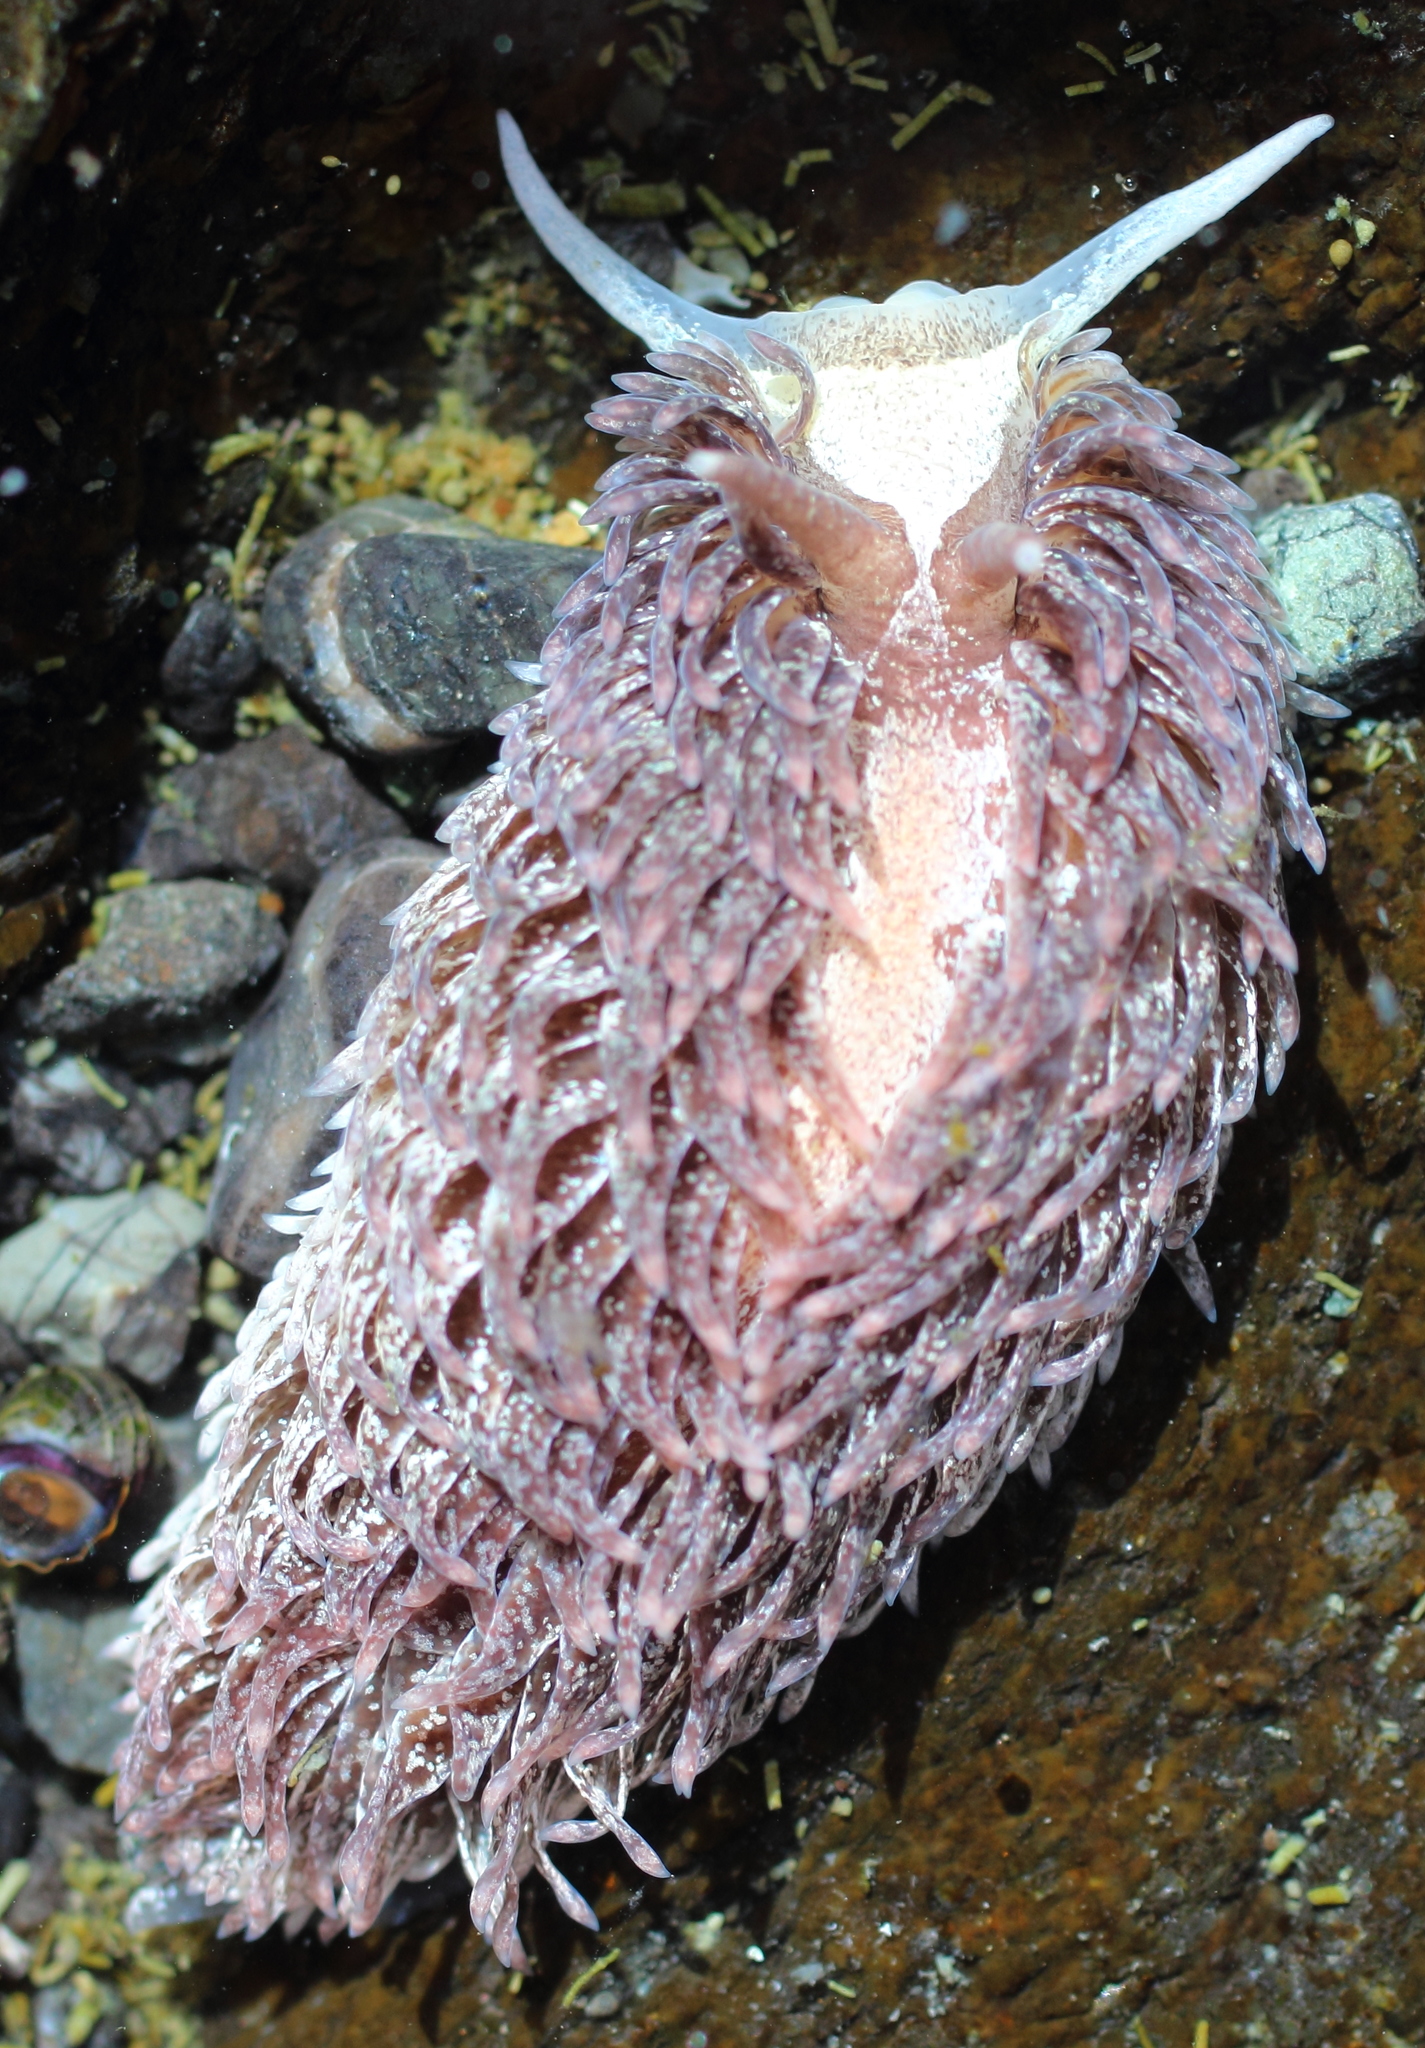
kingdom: Animalia
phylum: Mollusca
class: Gastropoda
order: Nudibranchia
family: Aeolidiidae
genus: Aeolidia
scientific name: Aeolidia papillosa
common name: Common grey sea slug
